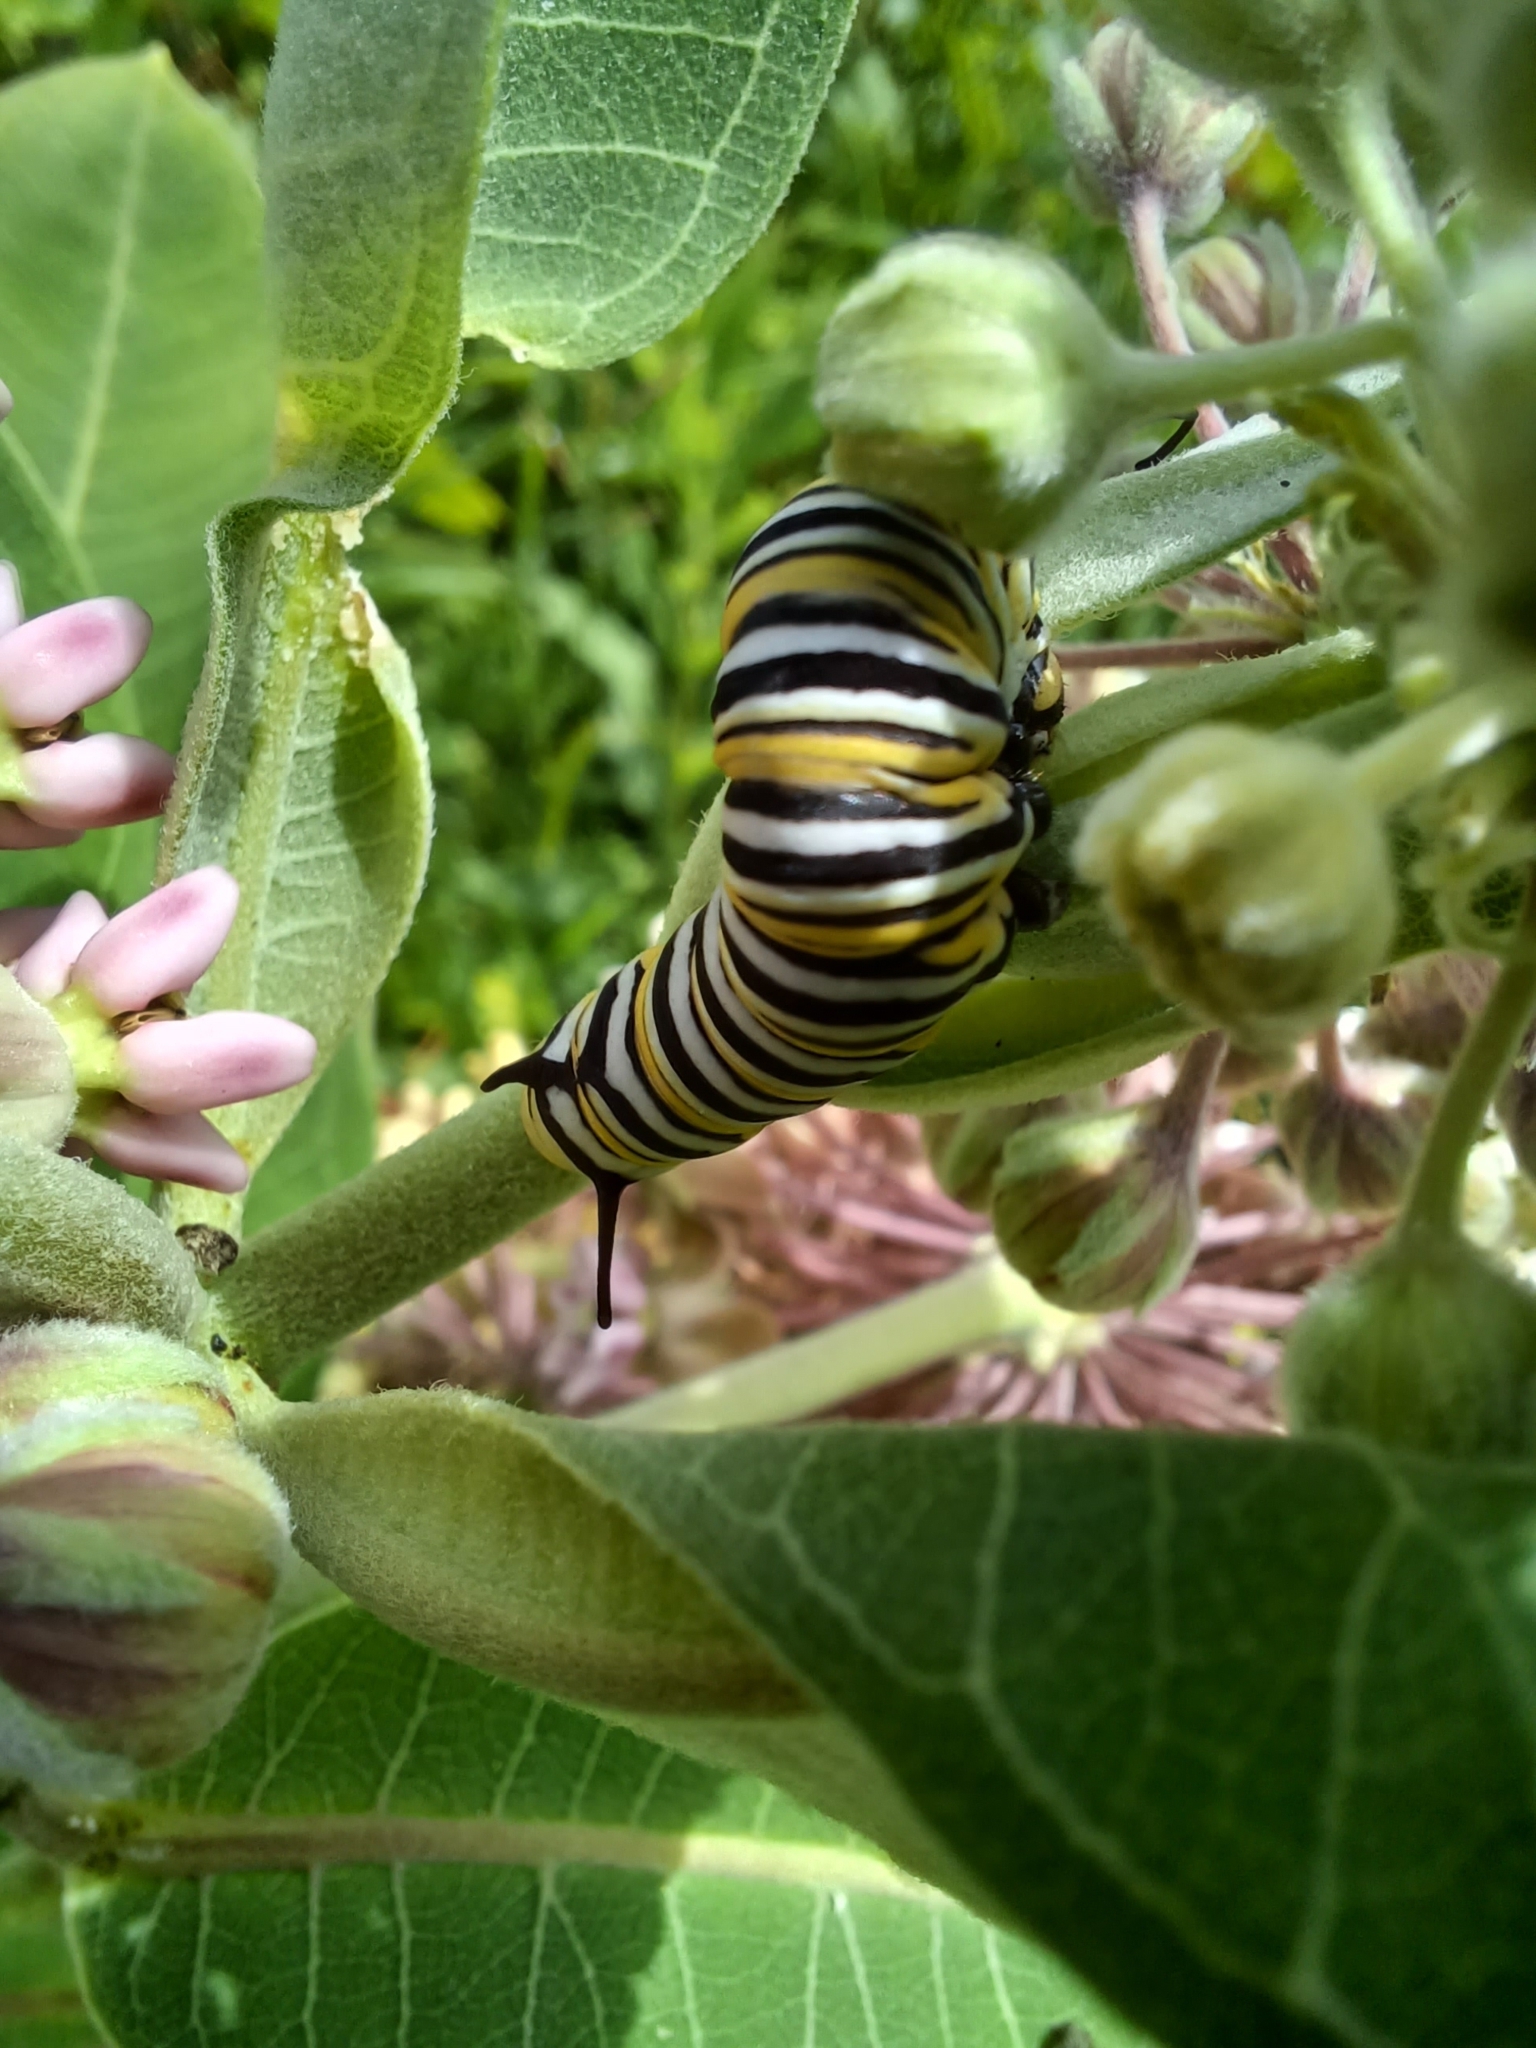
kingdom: Animalia
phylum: Arthropoda
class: Insecta
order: Lepidoptera
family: Nymphalidae
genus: Danaus
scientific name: Danaus plexippus
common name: Monarch
